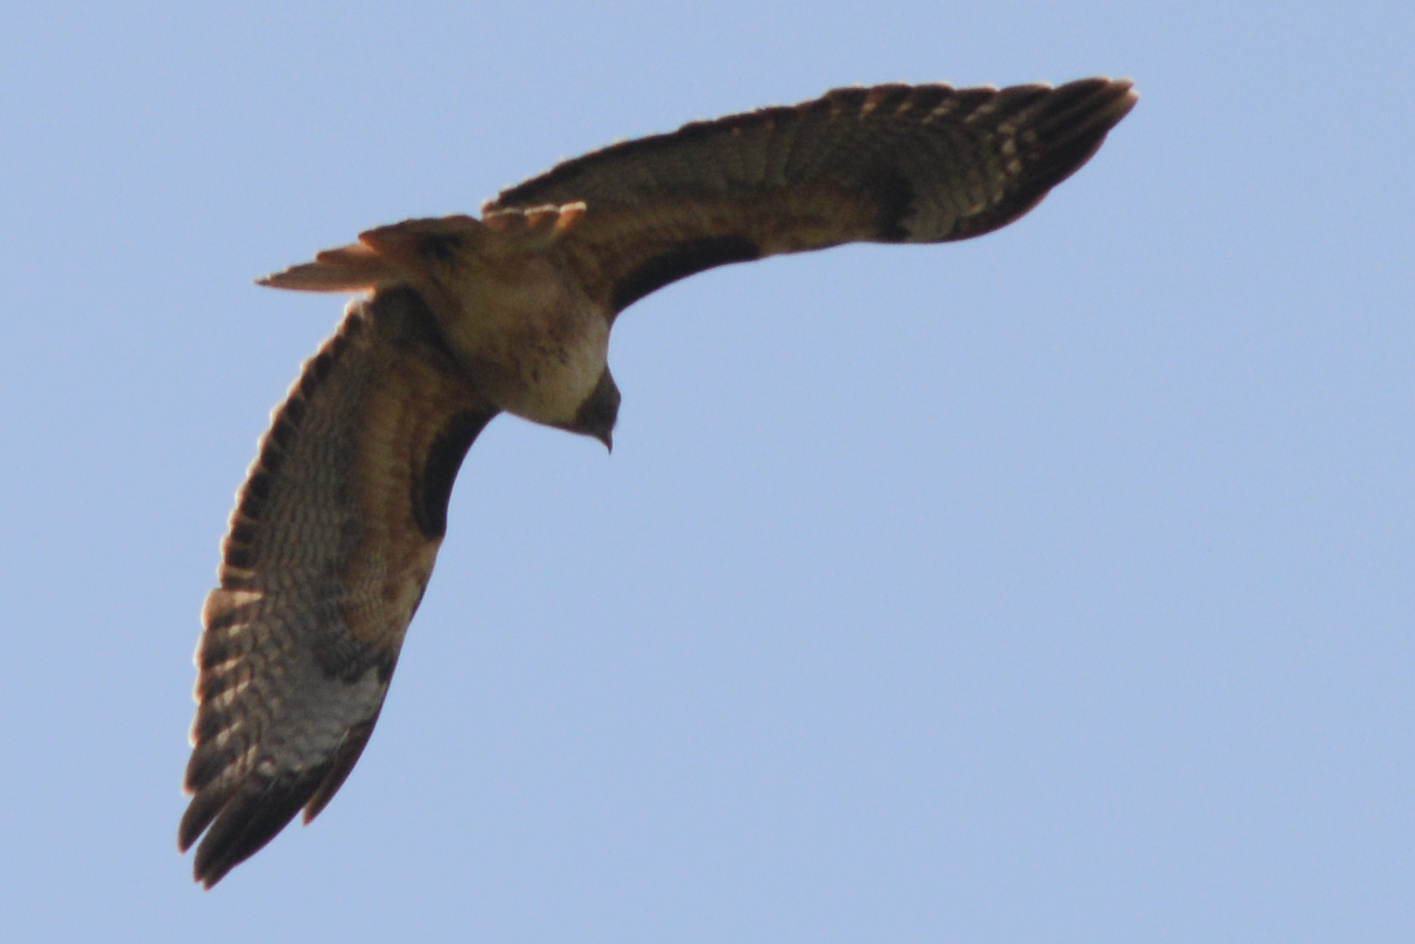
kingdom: Animalia
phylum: Chordata
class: Aves
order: Accipitriformes
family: Accipitridae
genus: Buteo
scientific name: Buteo jamaicensis
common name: Red-tailed hawk
